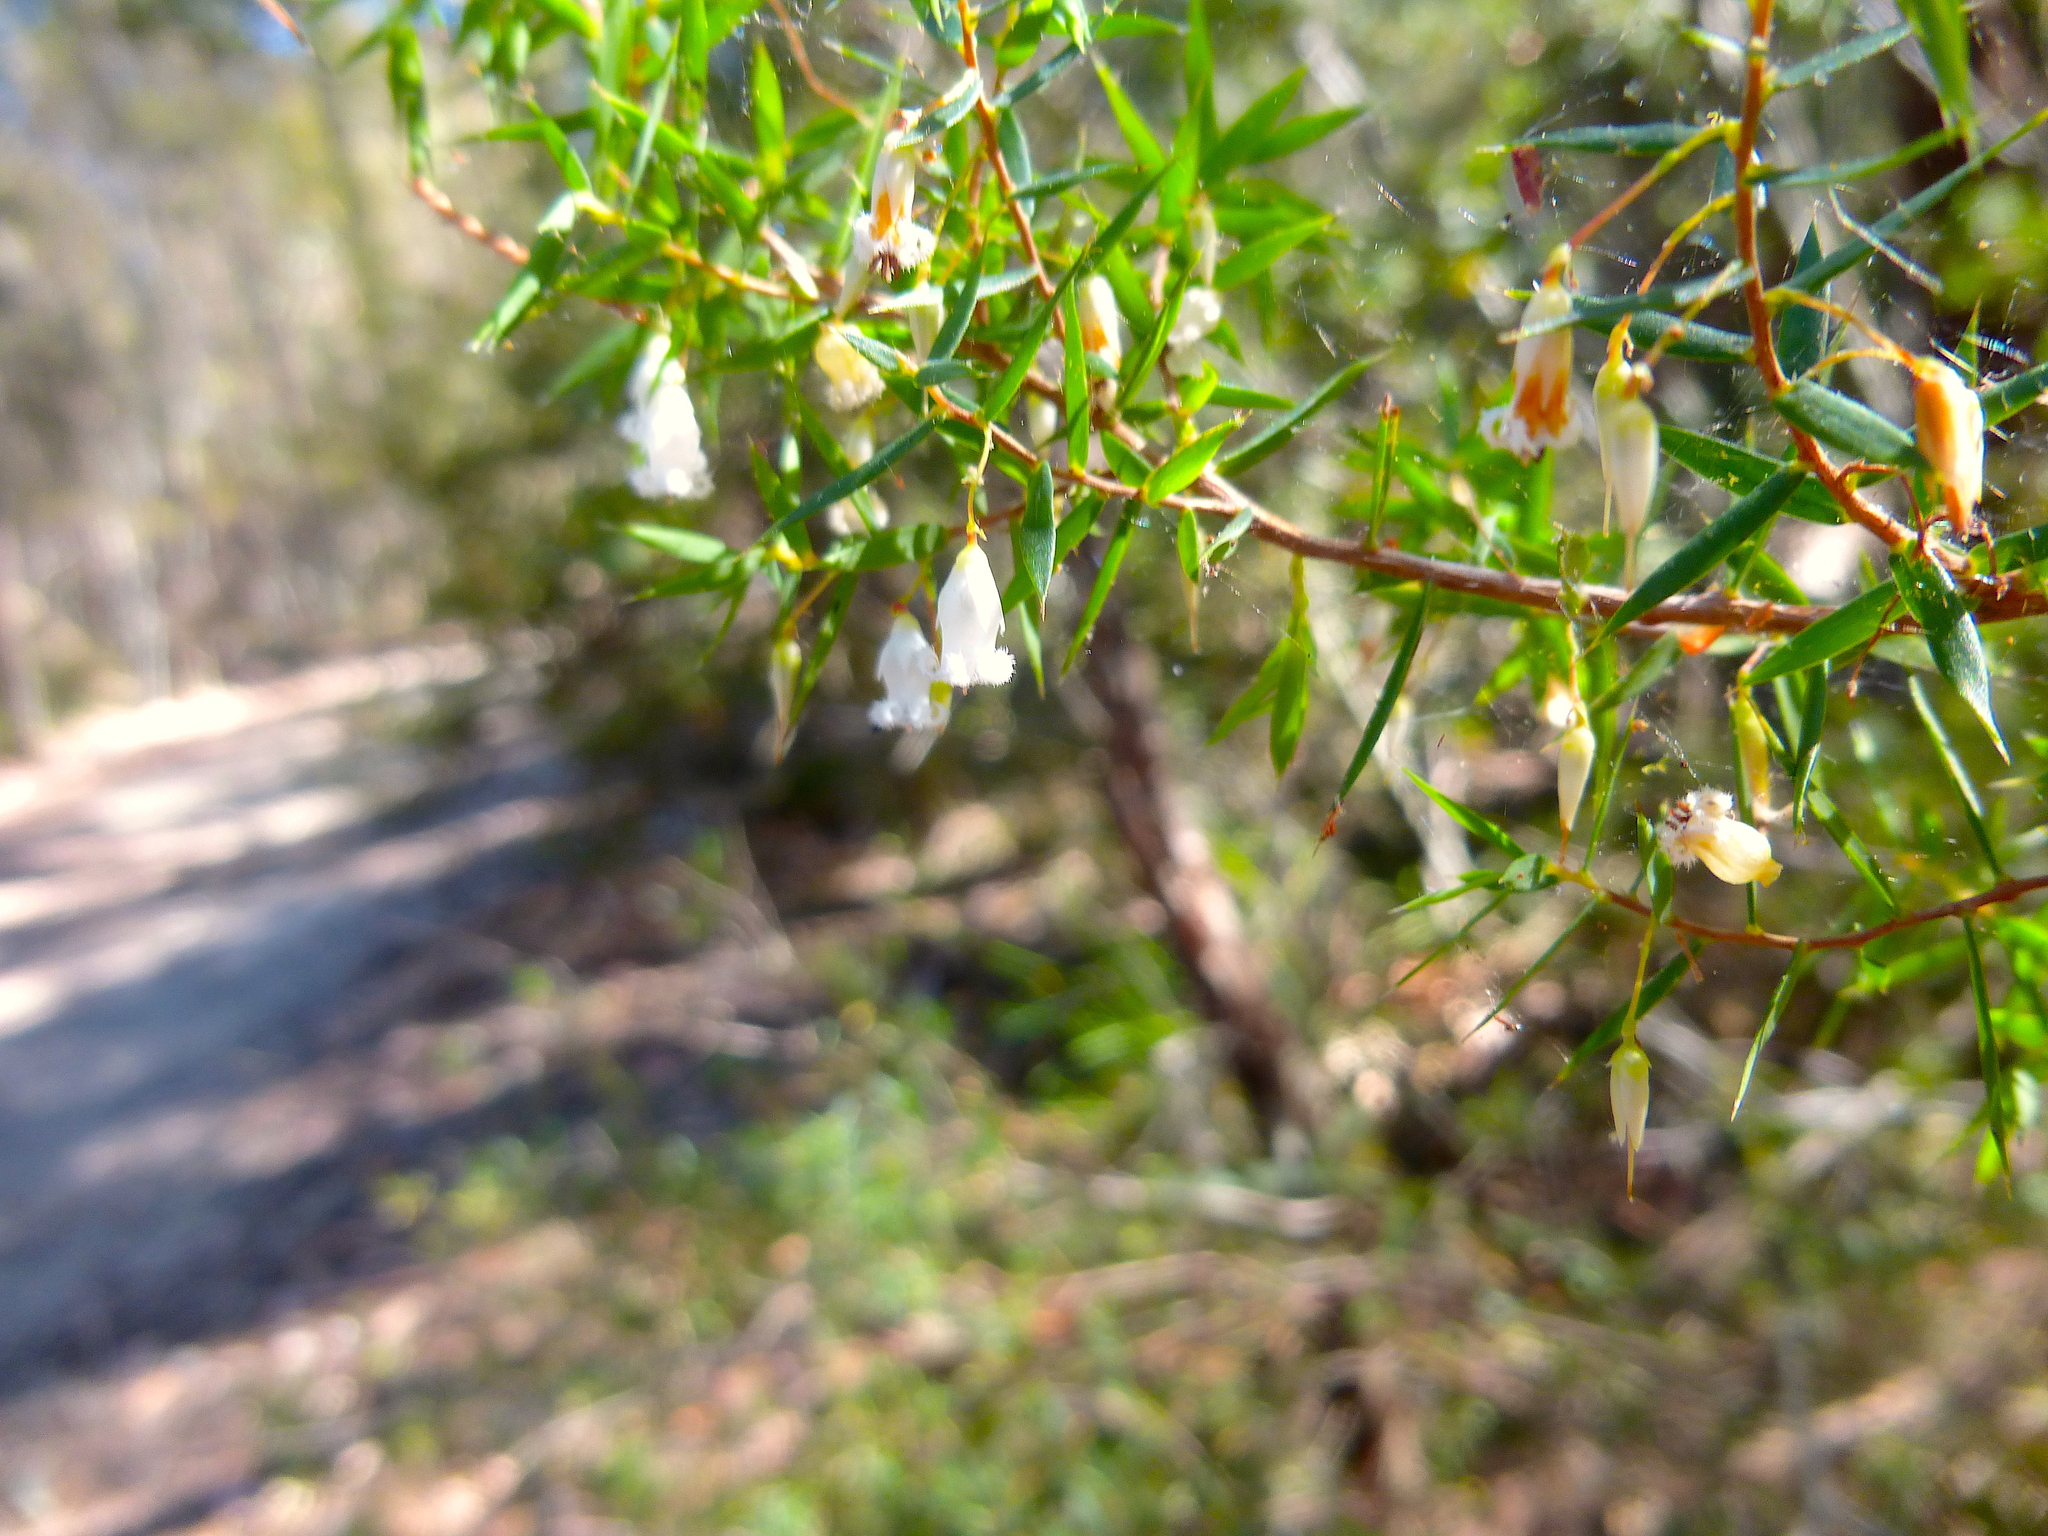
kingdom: Plantae
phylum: Tracheophyta
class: Magnoliopsida
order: Ericales
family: Ericaceae
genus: Styphelia
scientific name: Styphelia setigera
